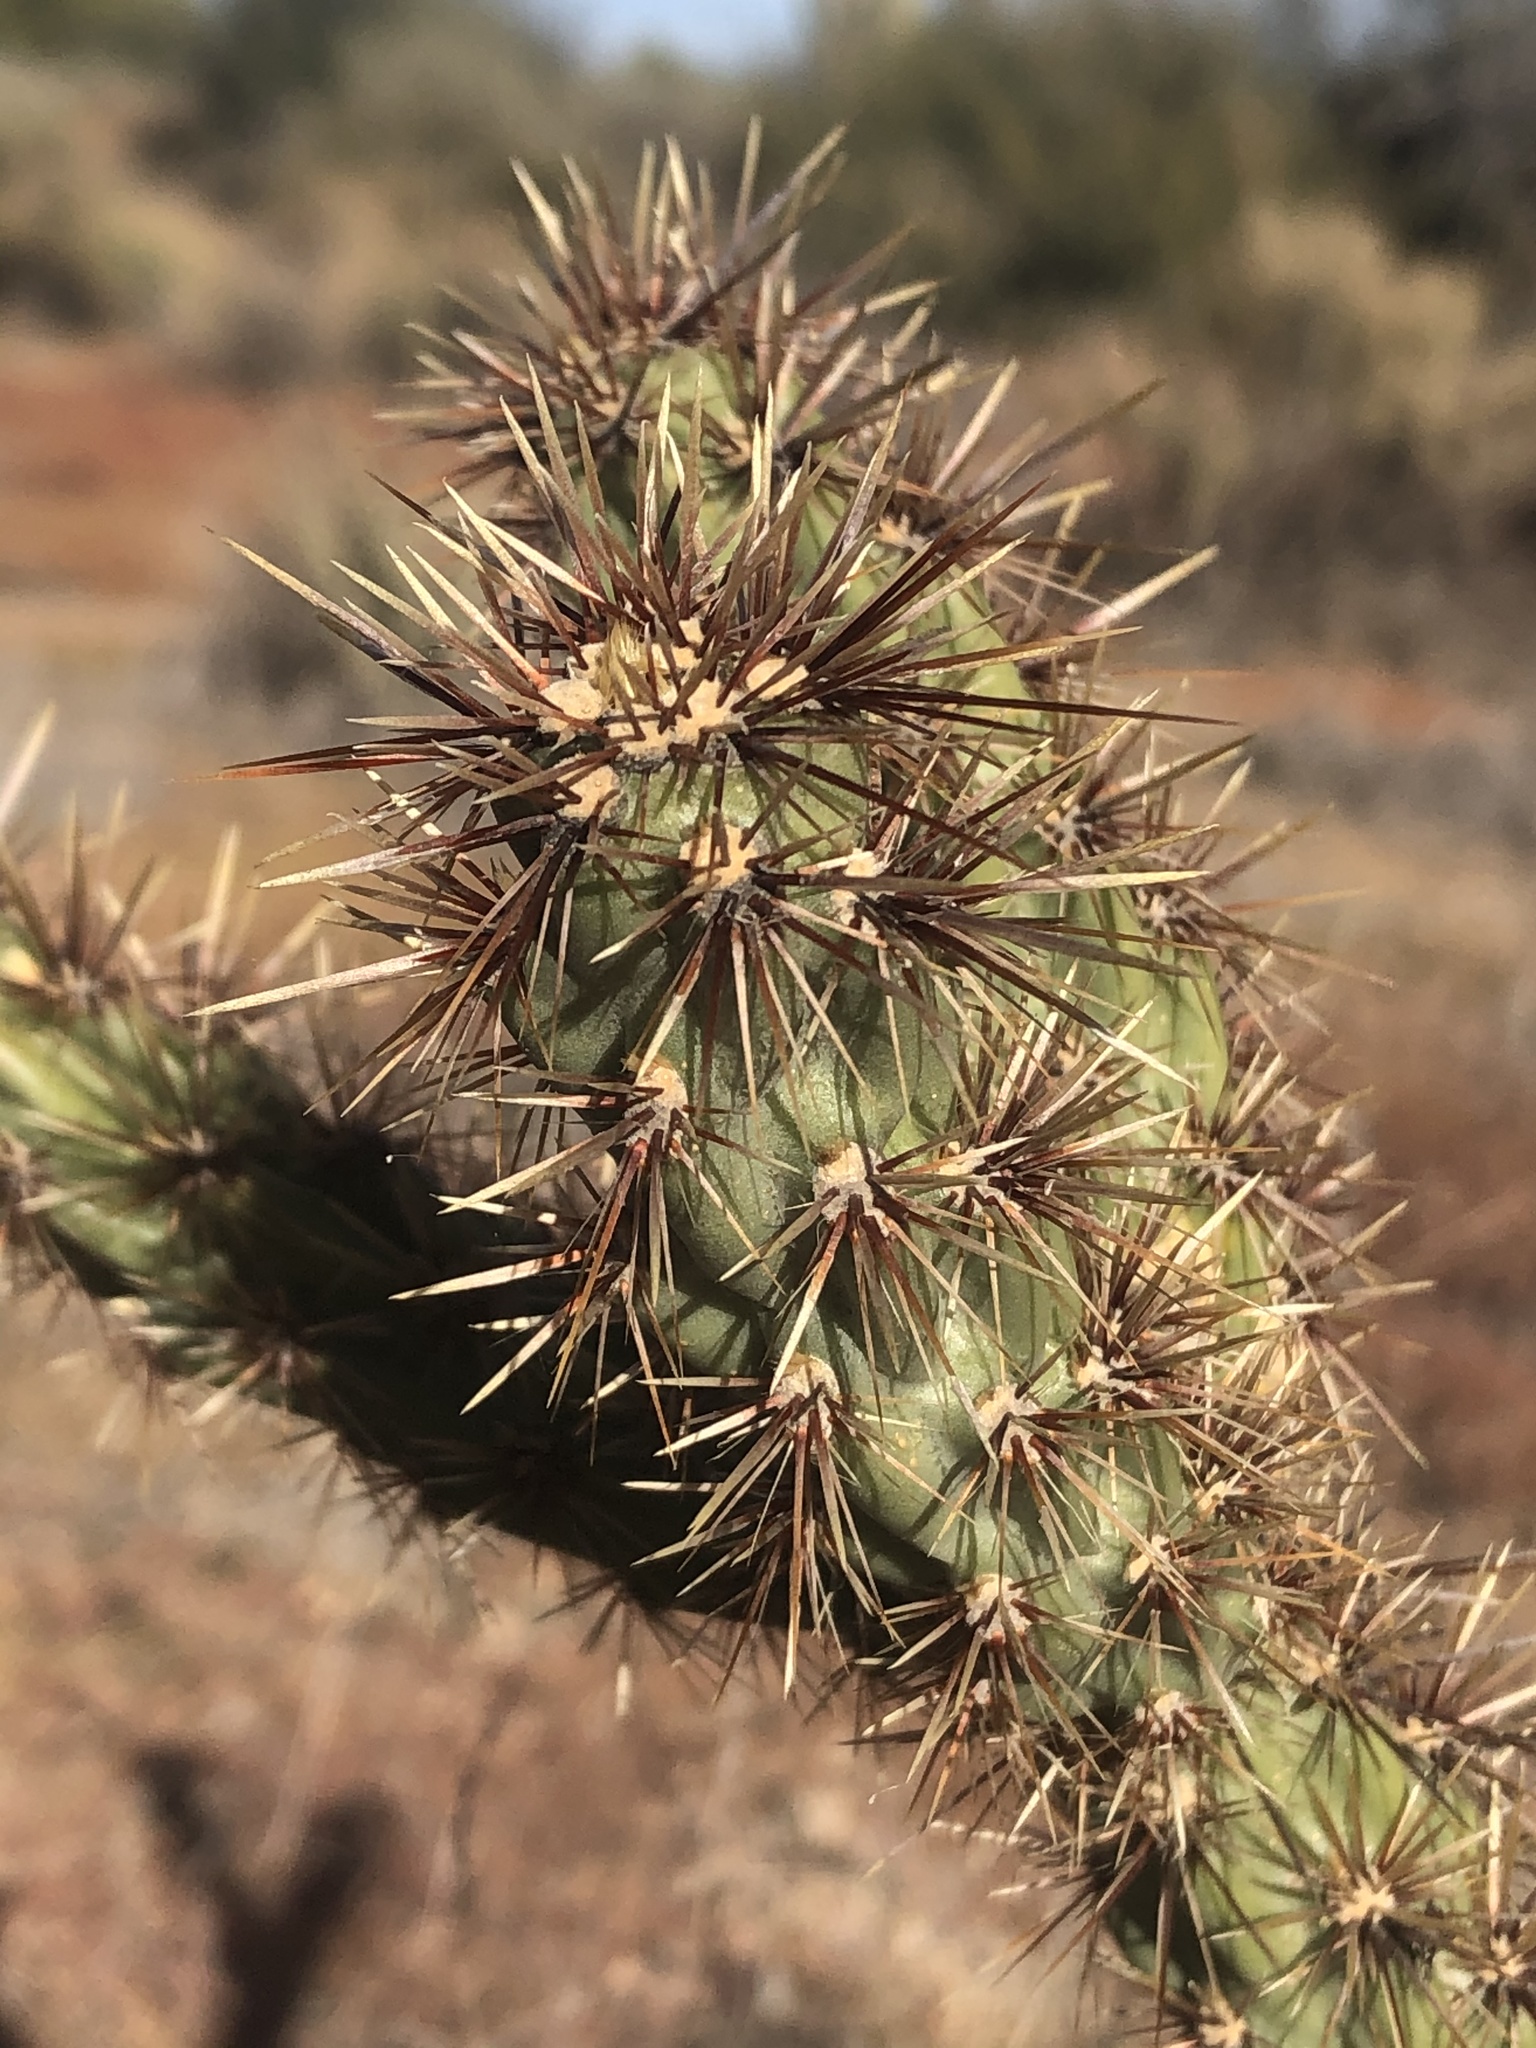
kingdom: Plantae
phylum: Tracheophyta
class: Magnoliopsida
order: Caryophyllales
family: Cactaceae
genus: Cylindropuntia
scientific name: Cylindropuntia acanthocarpa
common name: Buckhorn cholla
